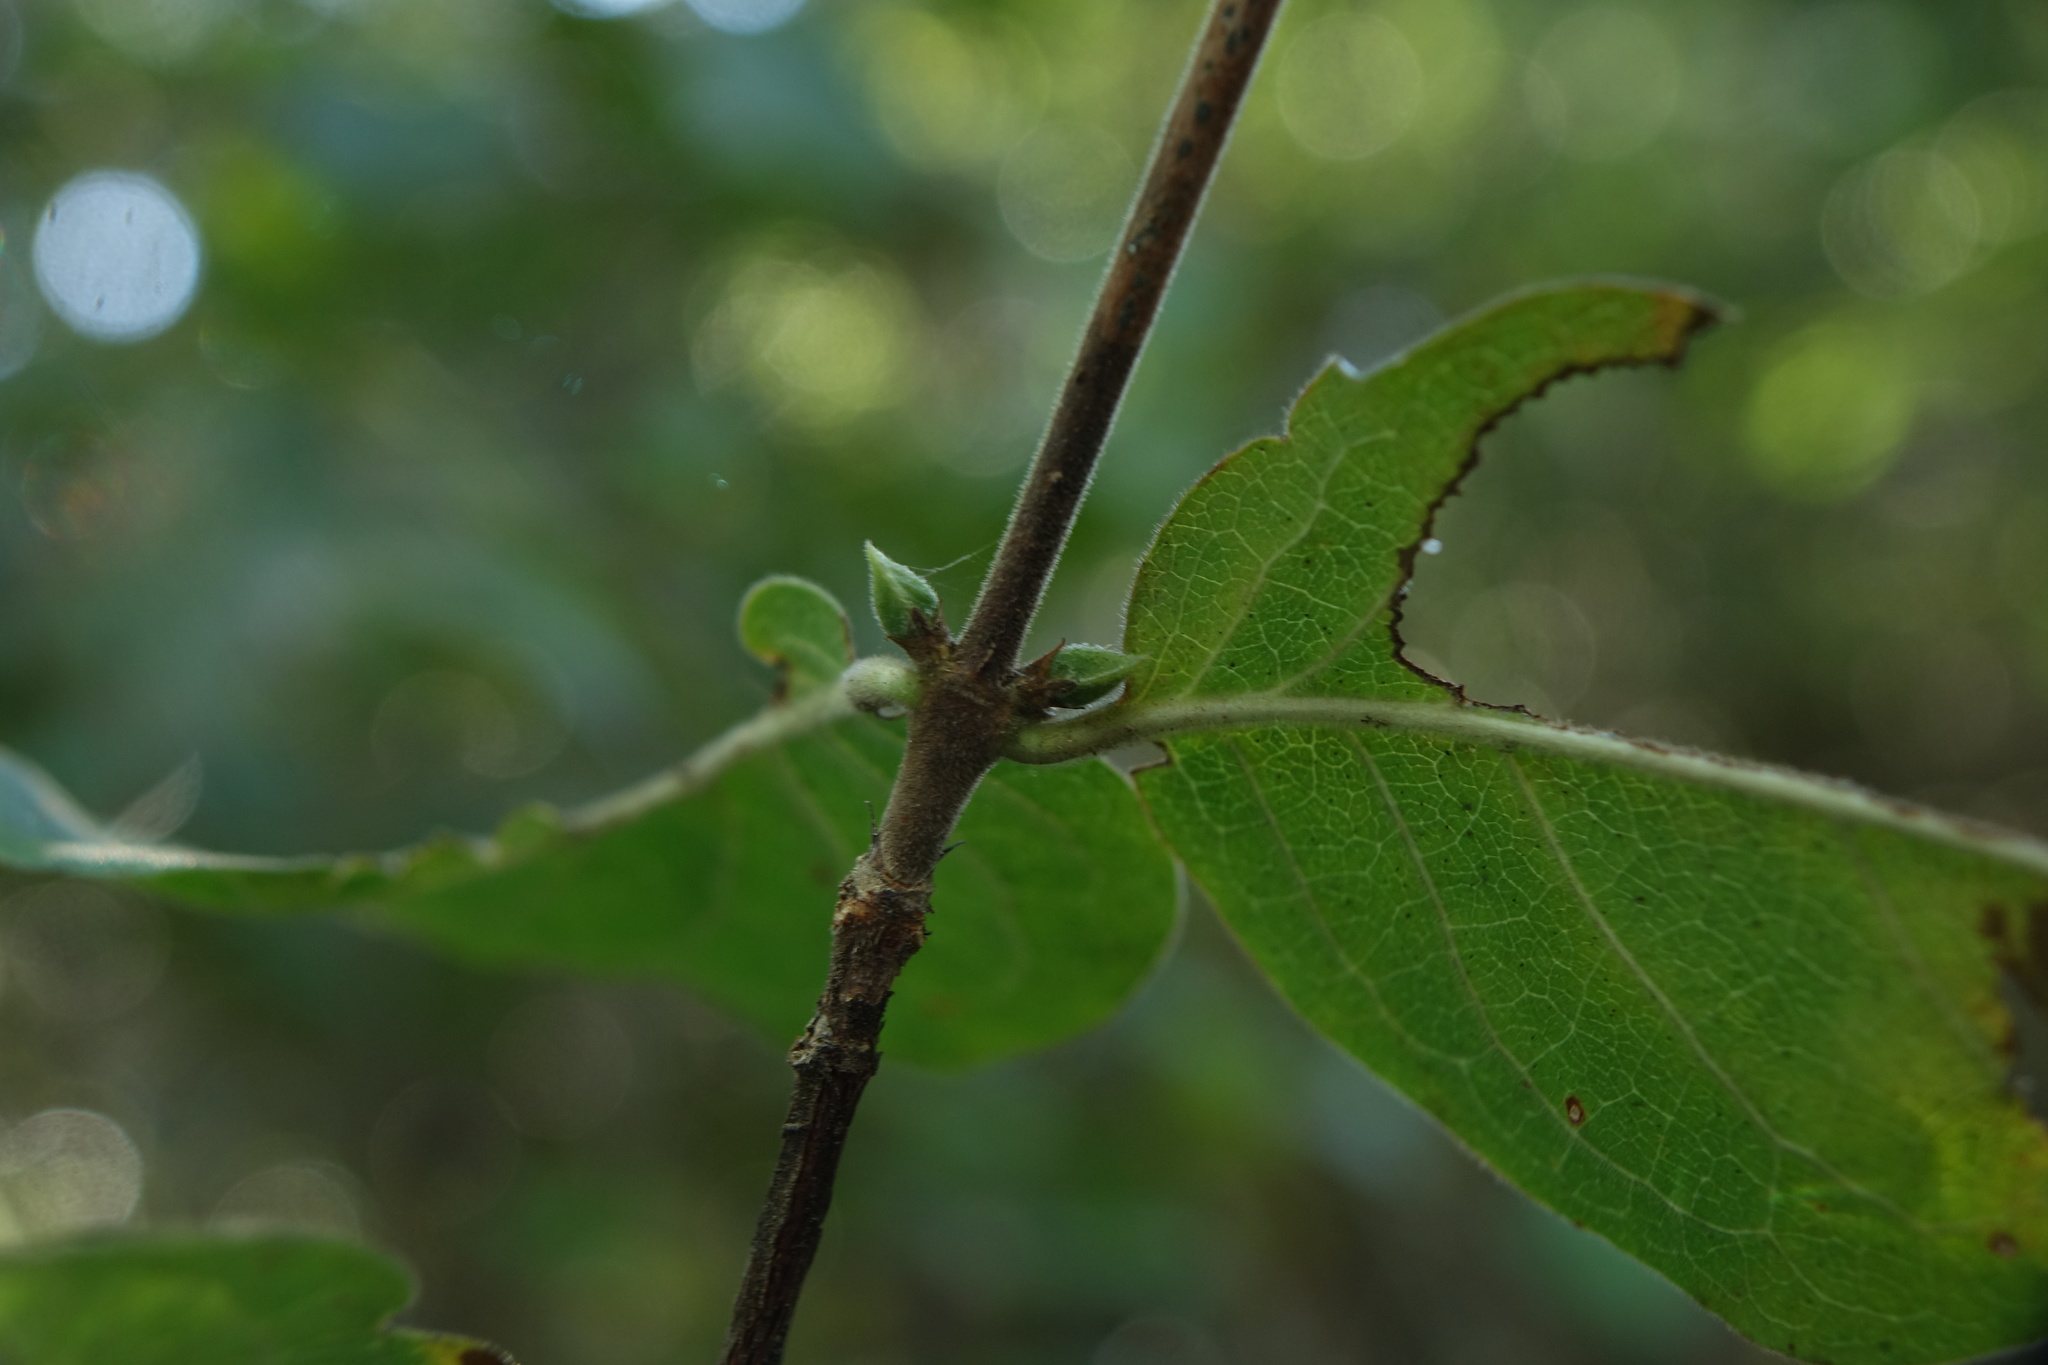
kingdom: Plantae
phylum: Tracheophyta
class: Magnoliopsida
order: Gentianales
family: Rubiaceae
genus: Coffea
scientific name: Coffea grevei
